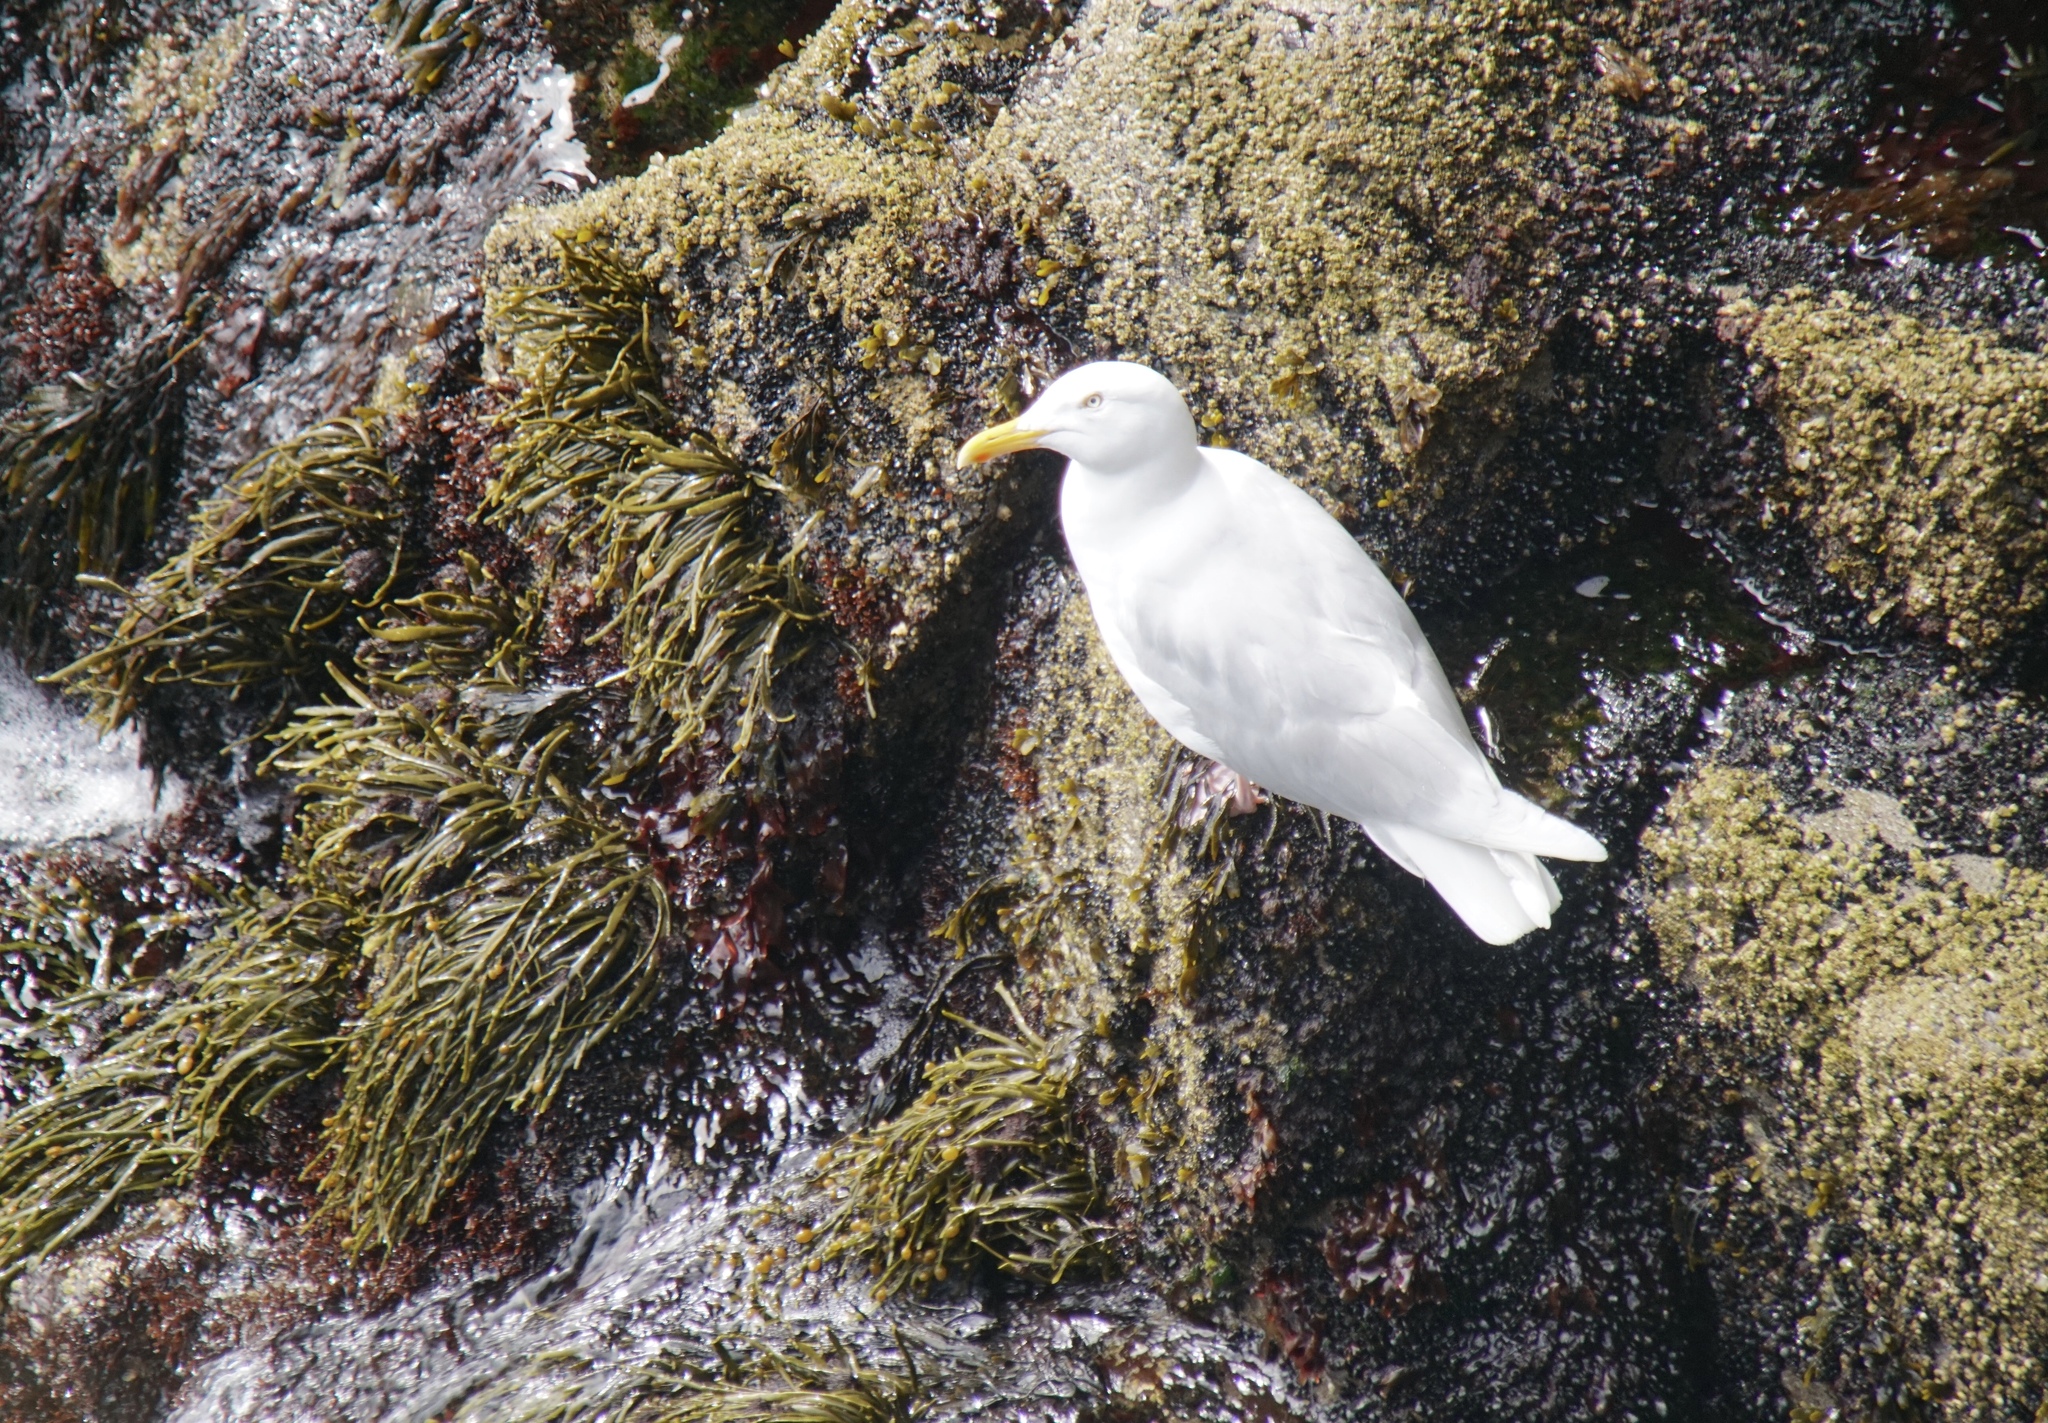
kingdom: Animalia
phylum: Chordata
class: Aves
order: Charadriiformes
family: Laridae
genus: Larus
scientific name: Larus hyperboreus
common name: Glaucous gull
